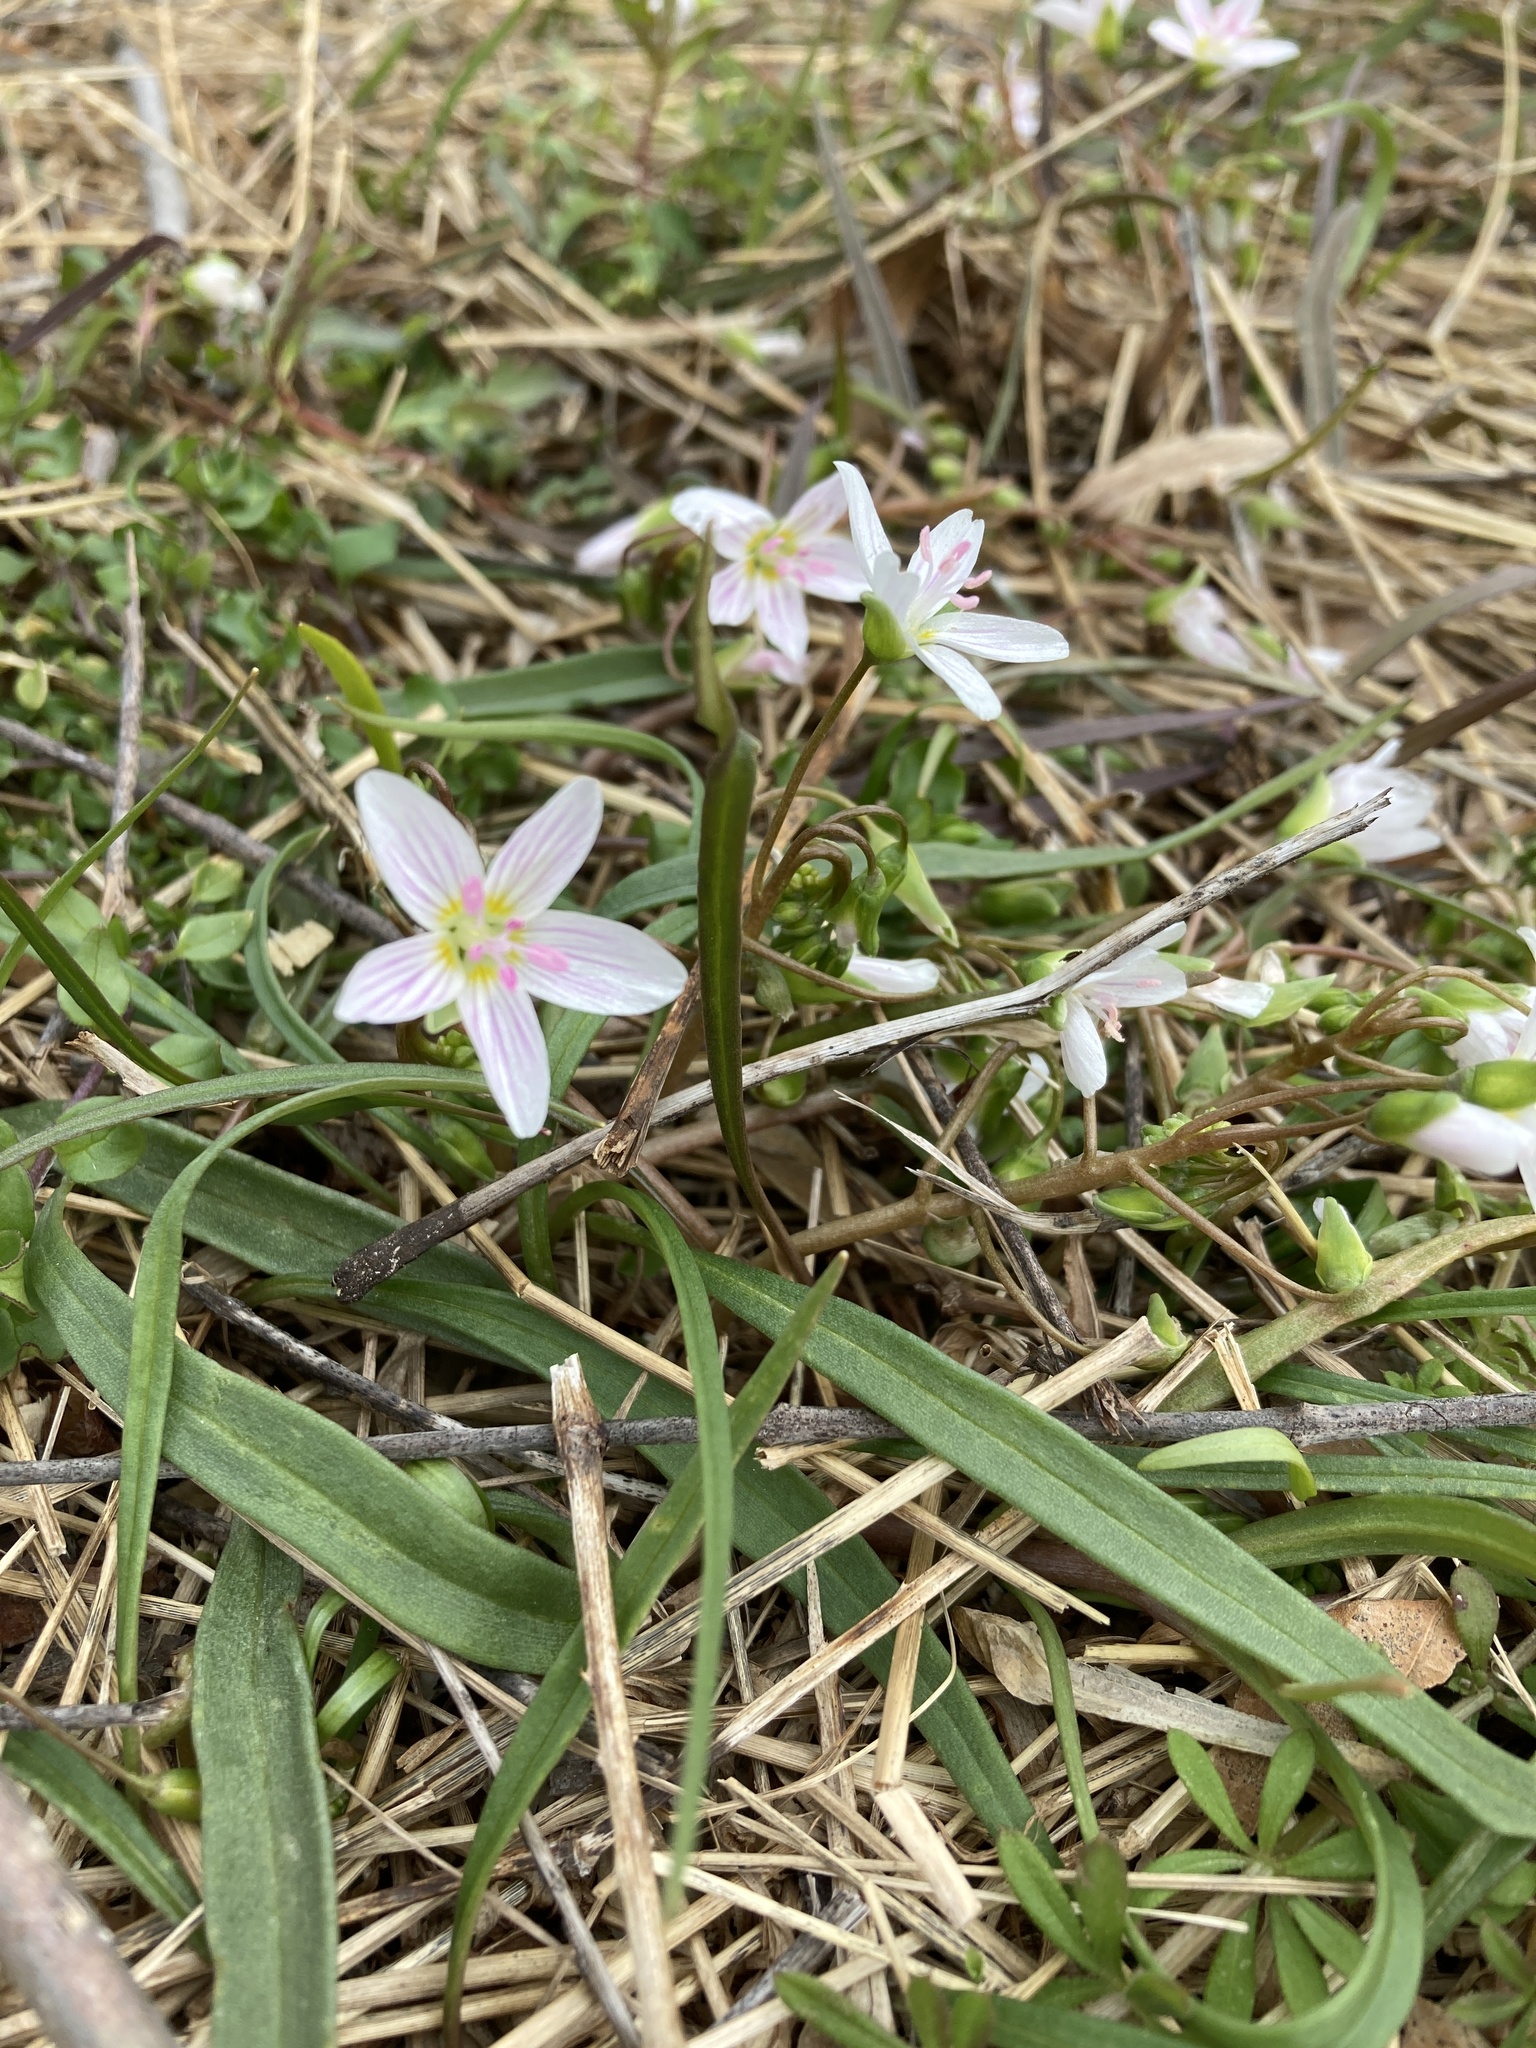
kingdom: Plantae
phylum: Tracheophyta
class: Magnoliopsida
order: Caryophyllales
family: Montiaceae
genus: Claytonia
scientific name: Claytonia virginica
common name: Virginia springbeauty
